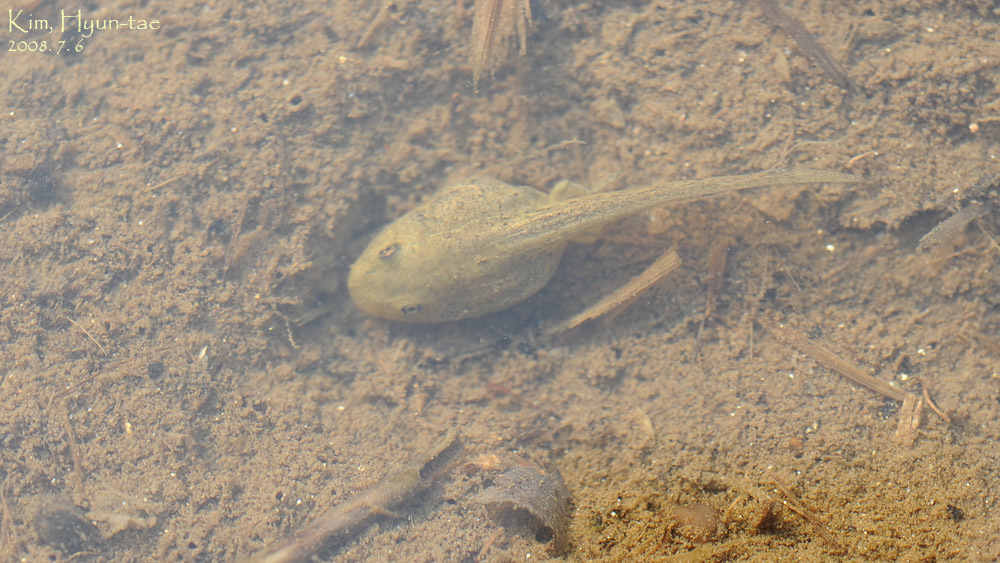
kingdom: Animalia
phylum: Chordata
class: Amphibia
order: Anura
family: Ranidae
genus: Pelophylax
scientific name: Pelophylax nigromaculatus
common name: Black-spotted pond frog
